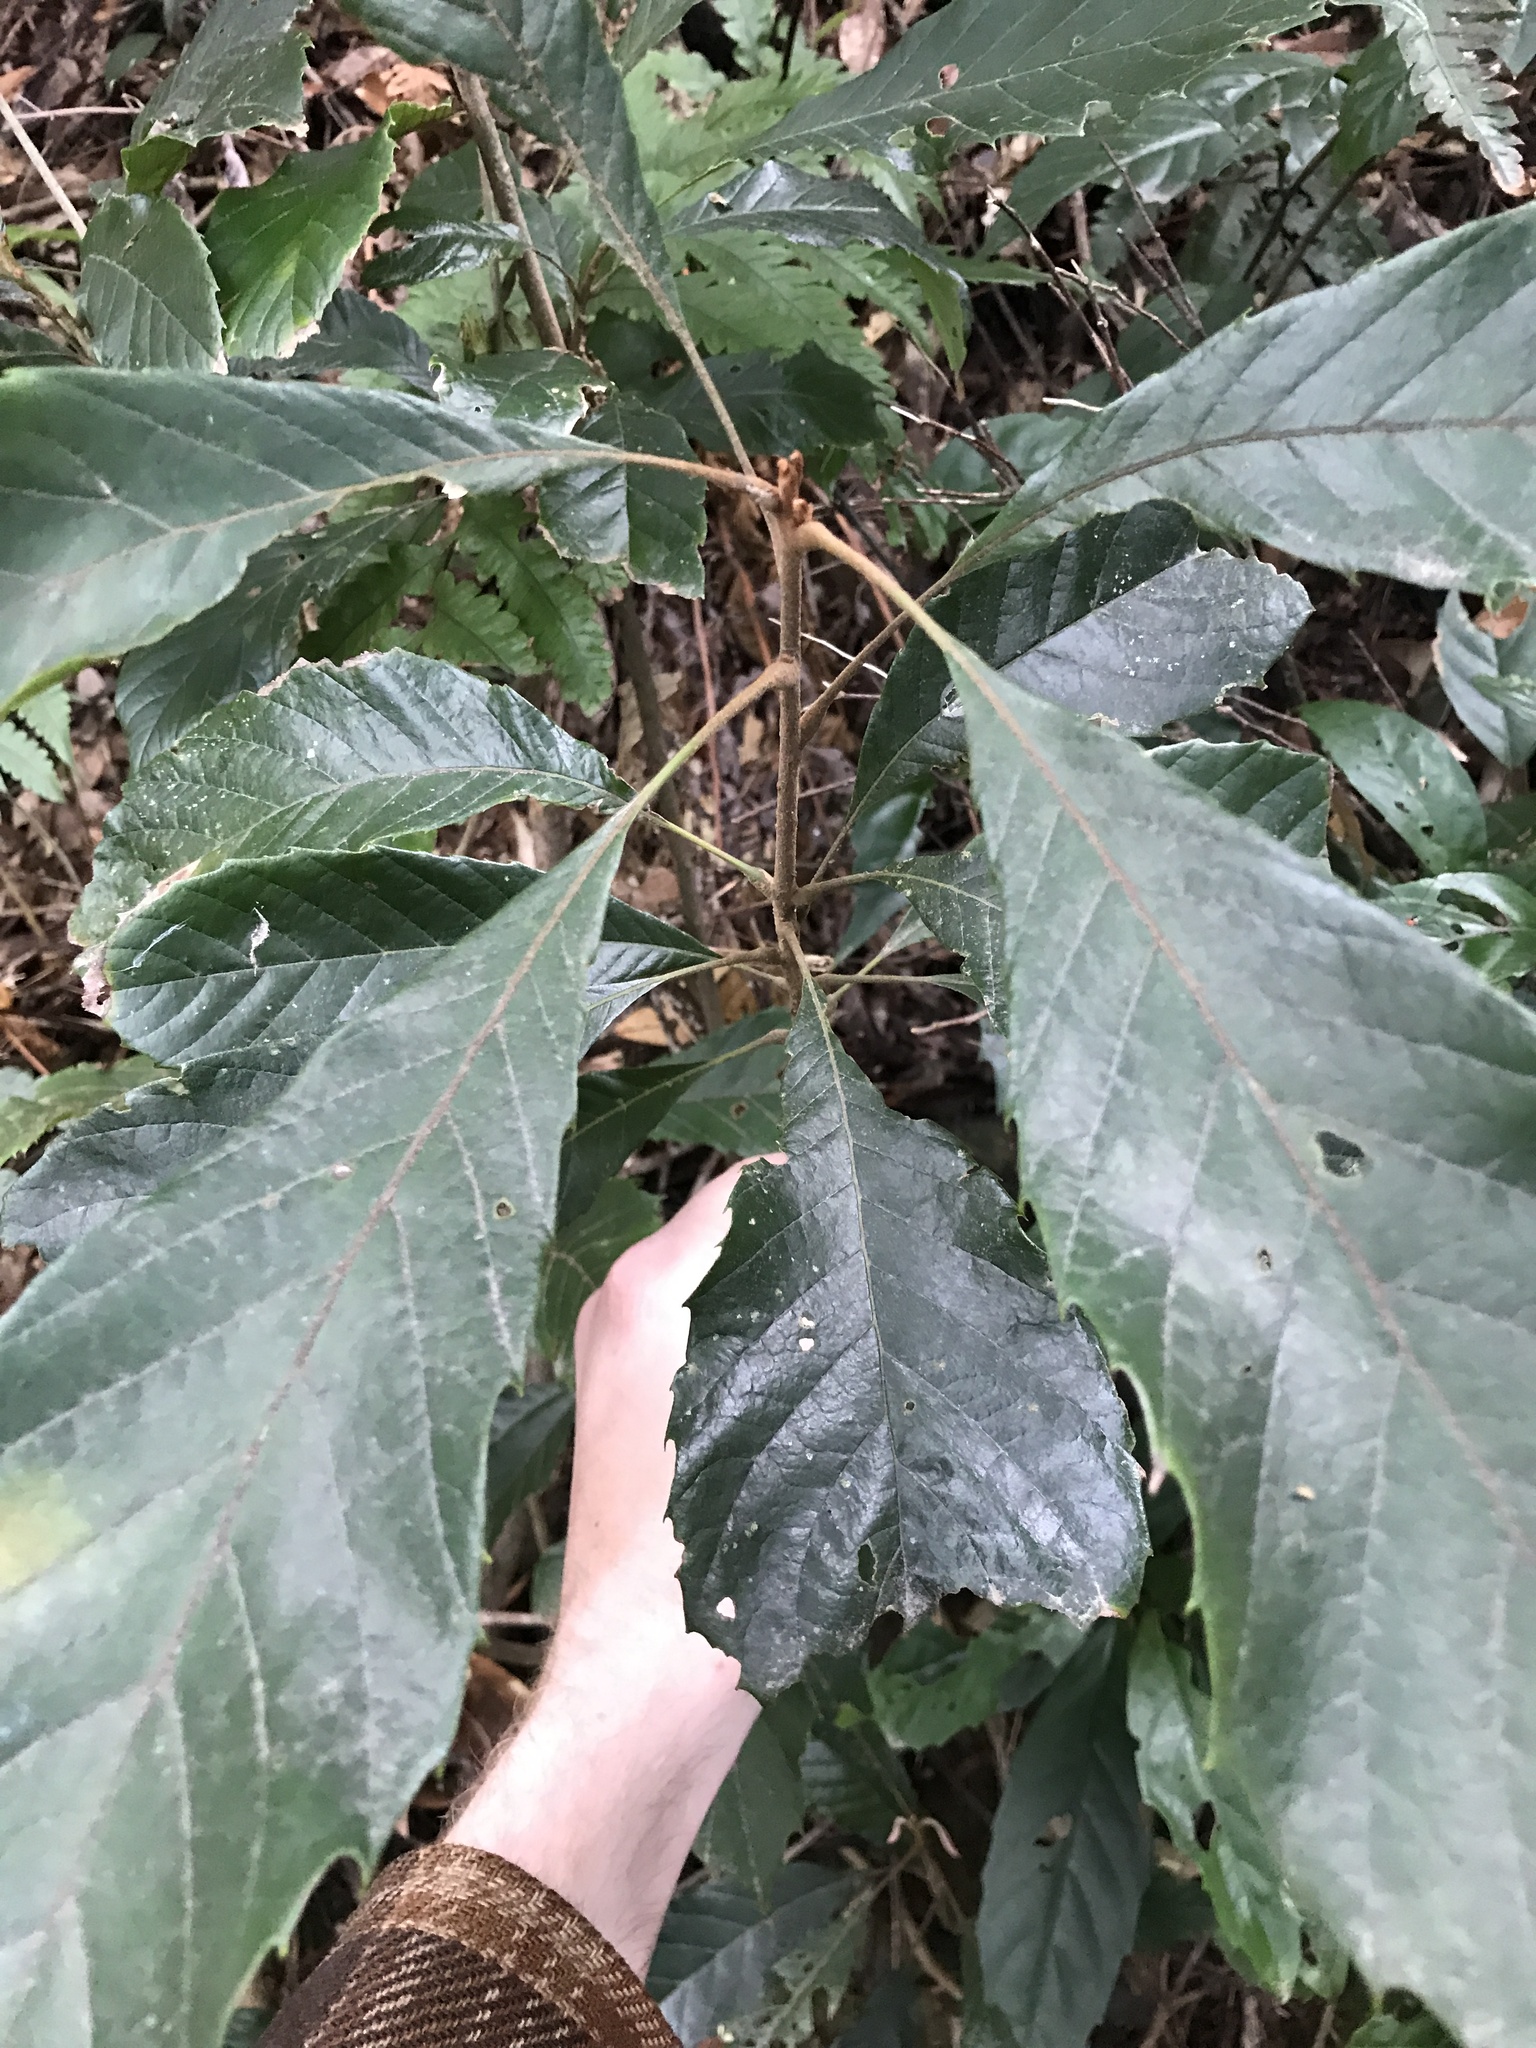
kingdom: Plantae
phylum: Tracheophyta
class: Magnoliopsida
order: Proteales
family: Sabiaceae
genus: Meliosma
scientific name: Meliosma rigida
